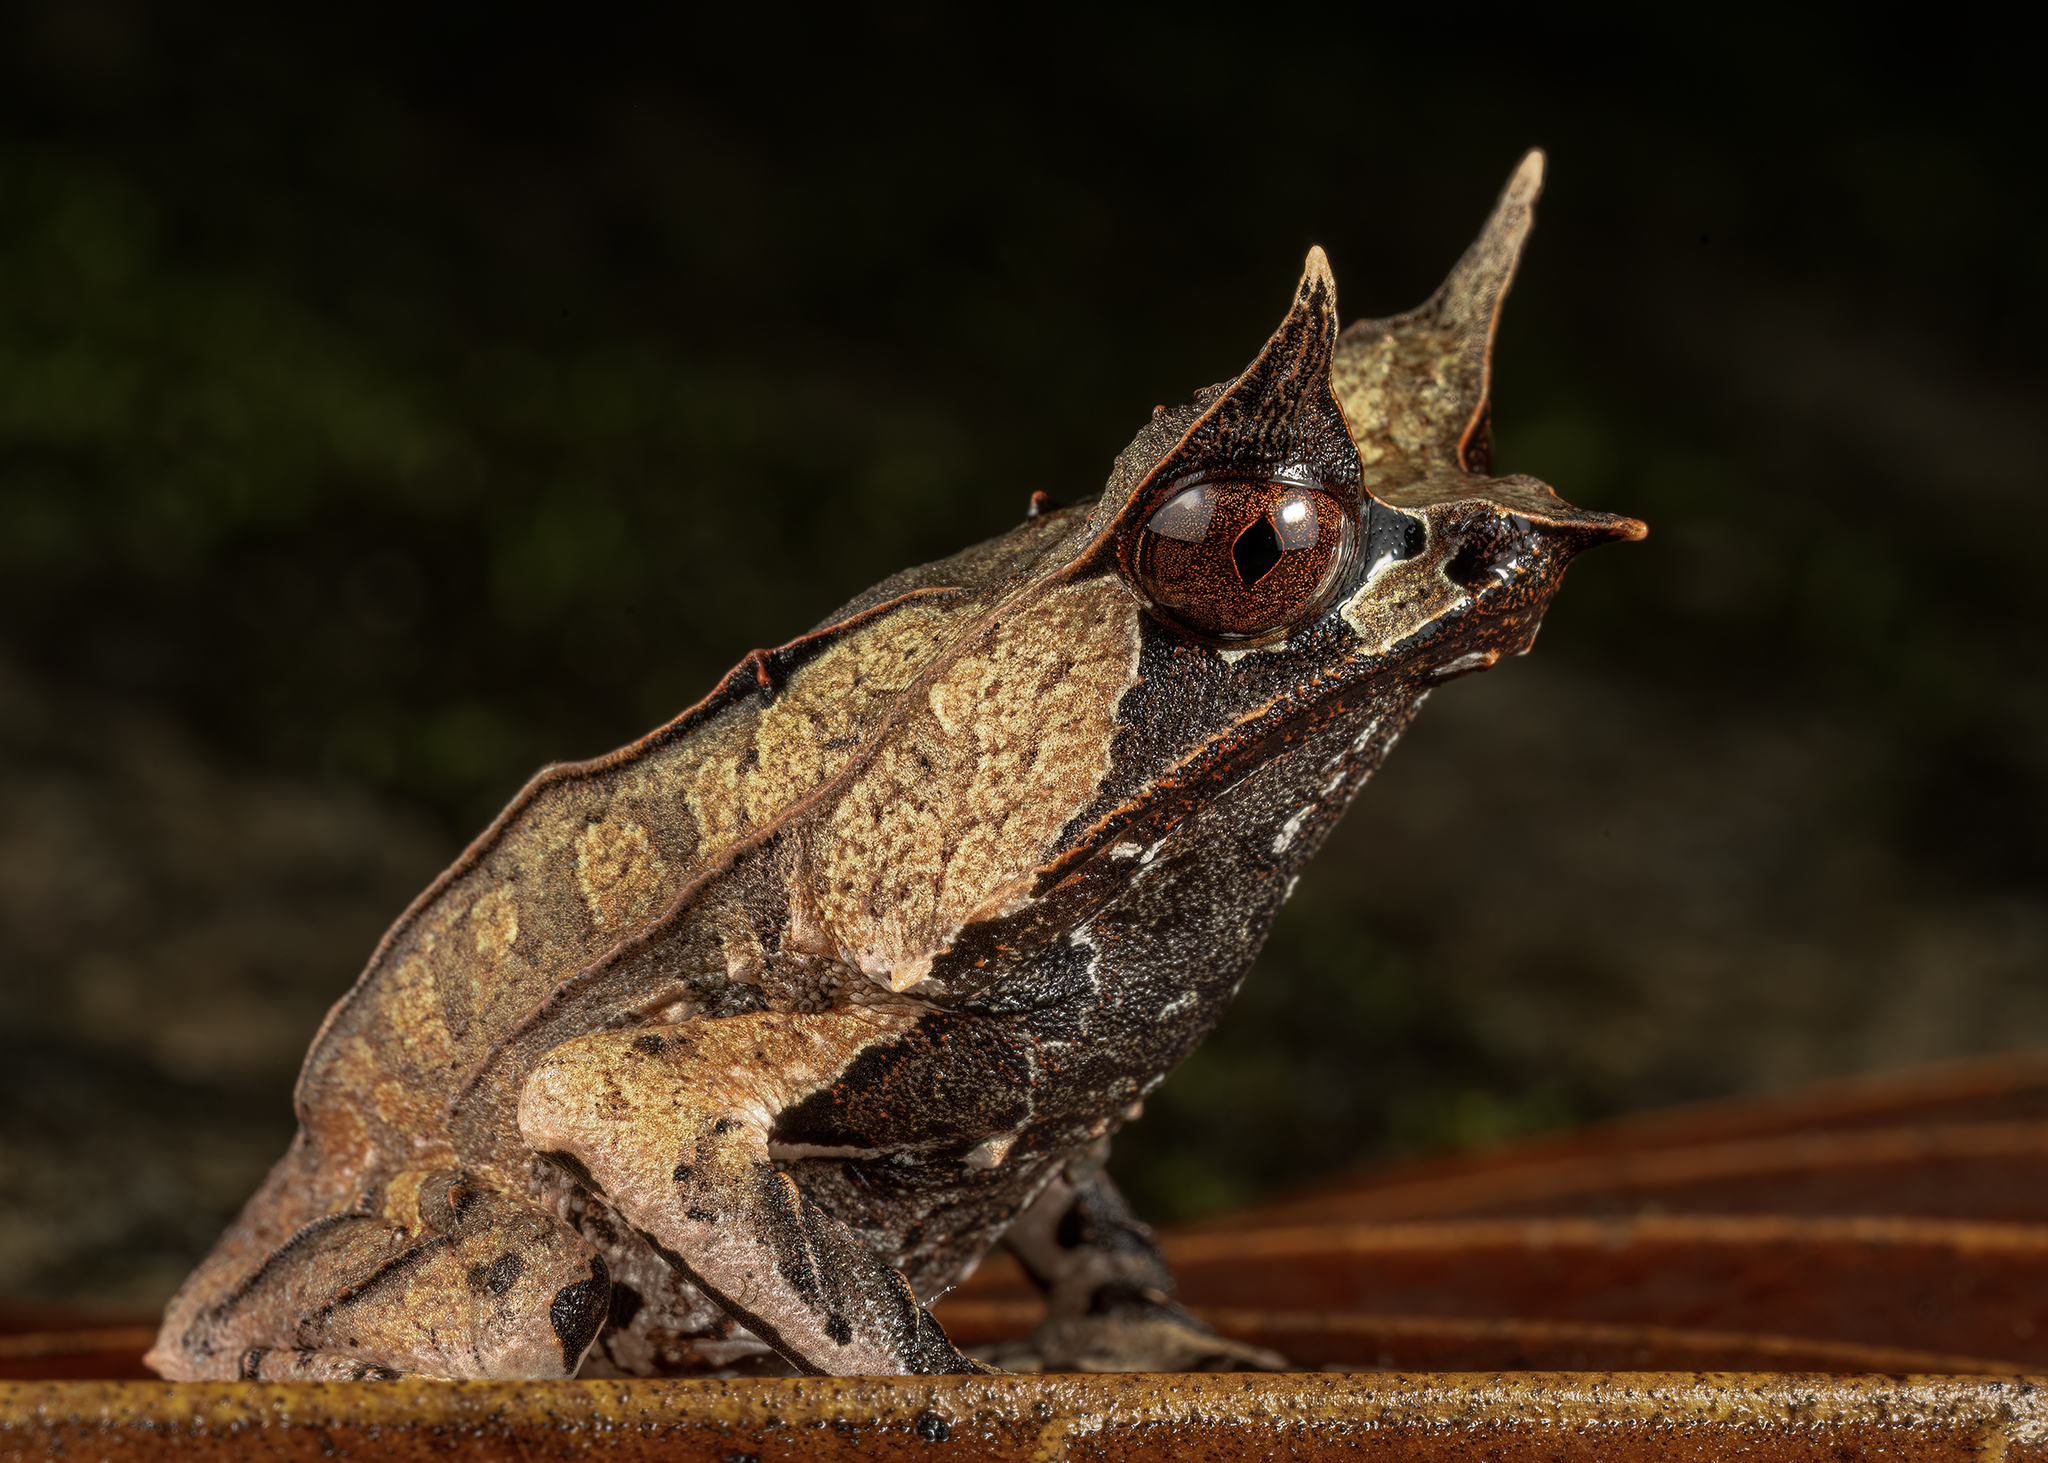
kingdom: Animalia
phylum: Chordata
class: Amphibia
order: Anura
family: Megophryidae
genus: Megophrys
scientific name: Megophrys nasuta
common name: Malayan horned frog
